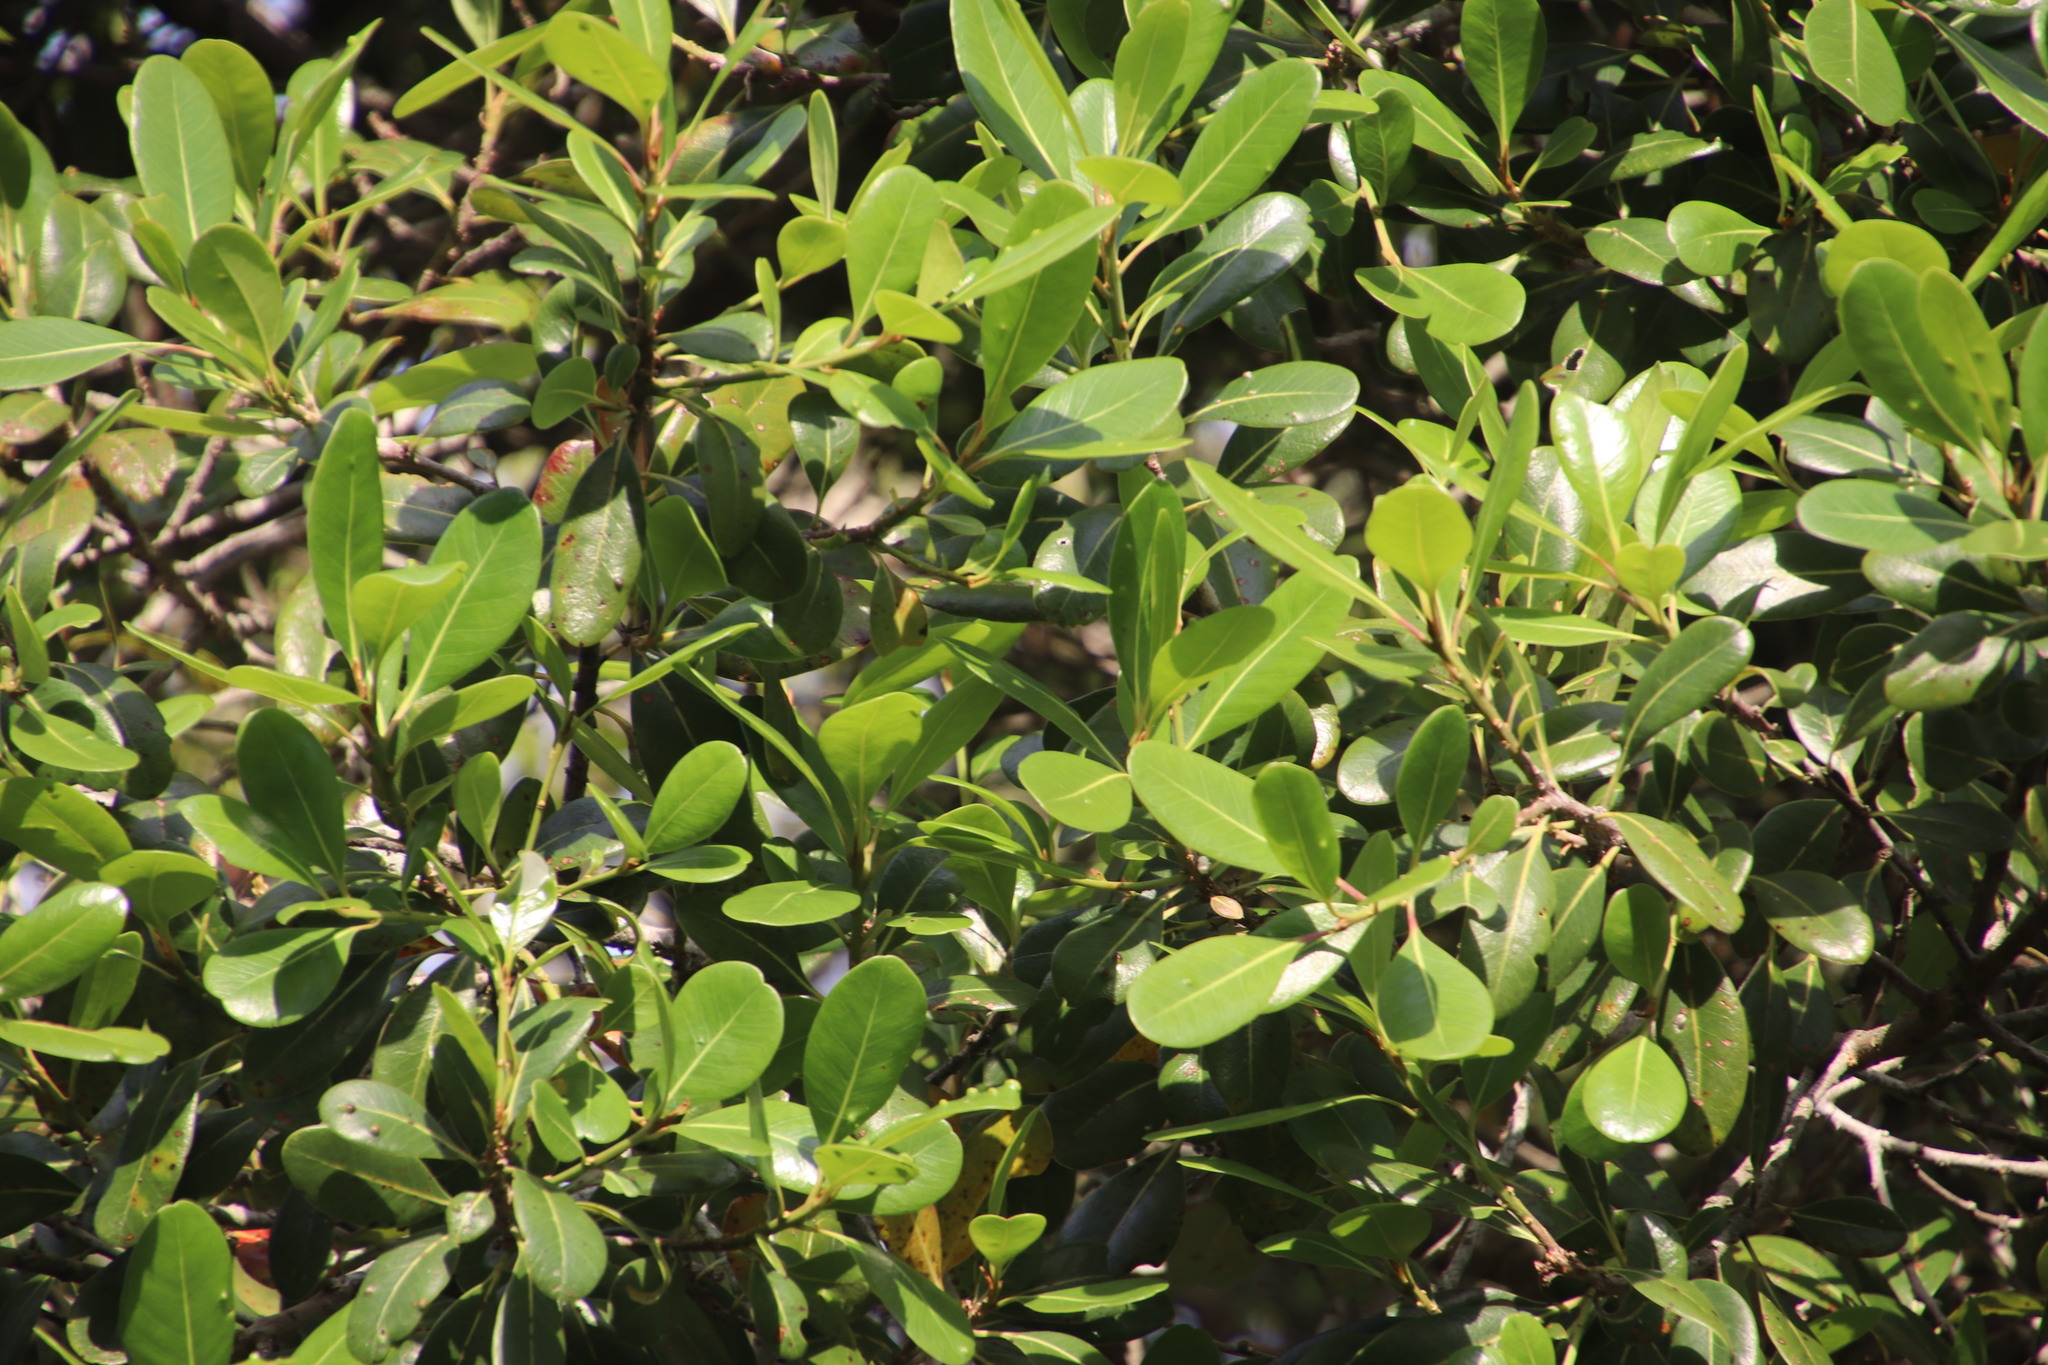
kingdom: Plantae
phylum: Tracheophyta
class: Magnoliopsida
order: Ericales
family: Sapotaceae
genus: Sideroxylon
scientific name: Sideroxylon inerme
